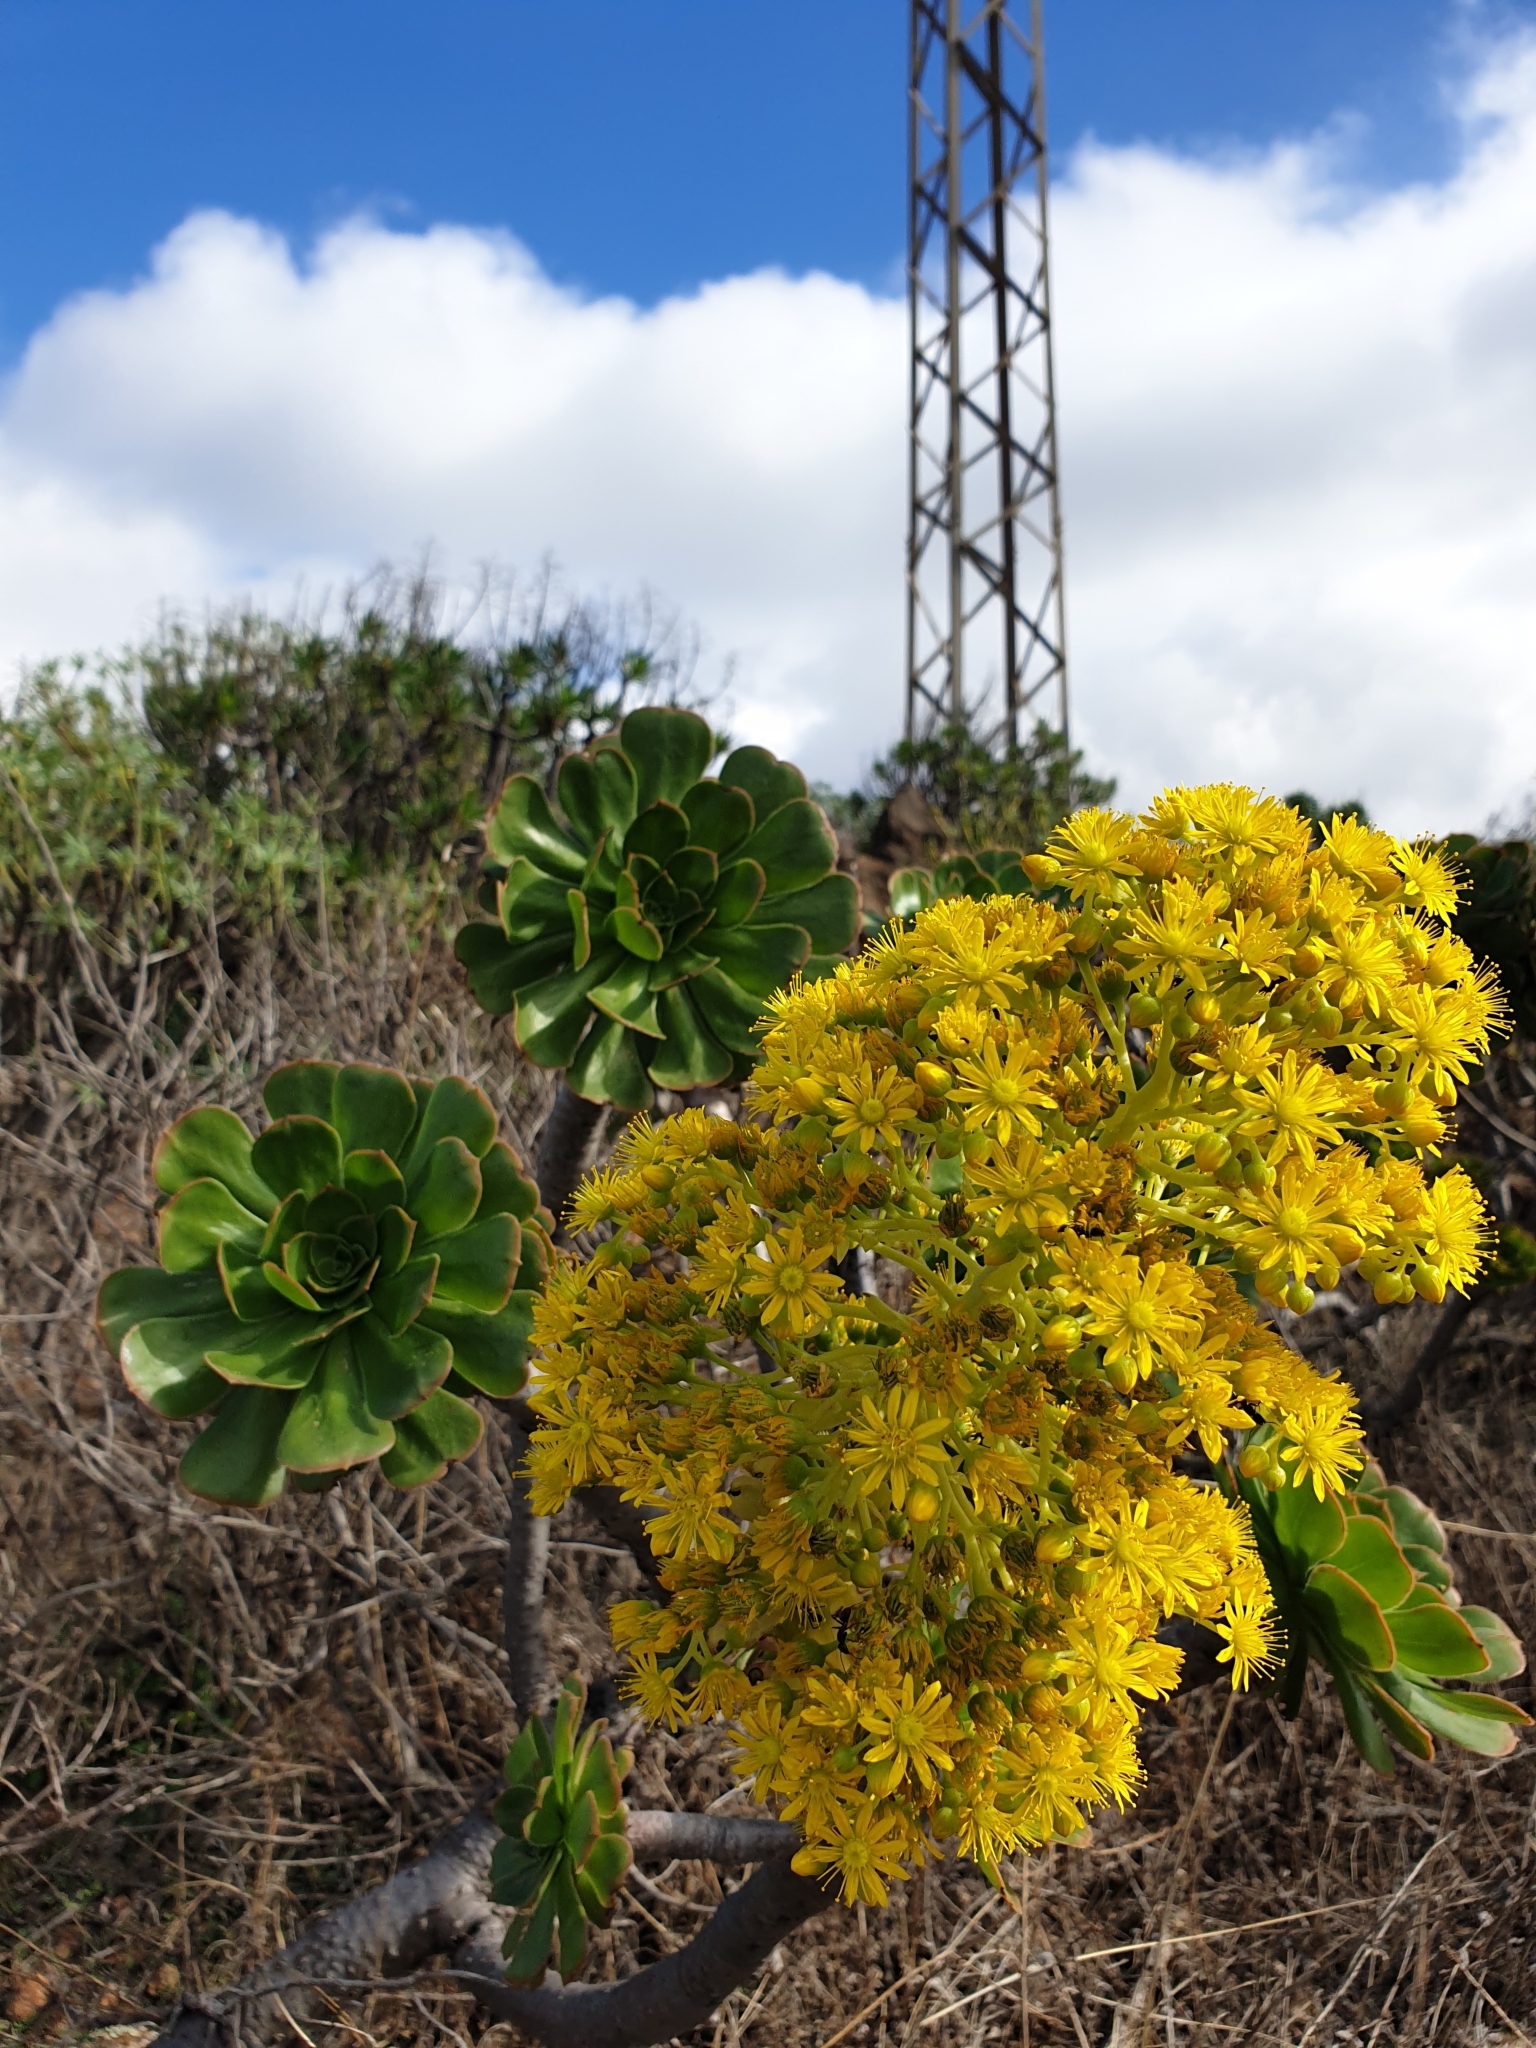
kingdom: Plantae
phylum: Tracheophyta
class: Magnoliopsida
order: Saxifragales
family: Crassulaceae
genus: Aeonium
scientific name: Aeonium arboreum
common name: Tree aeonium
